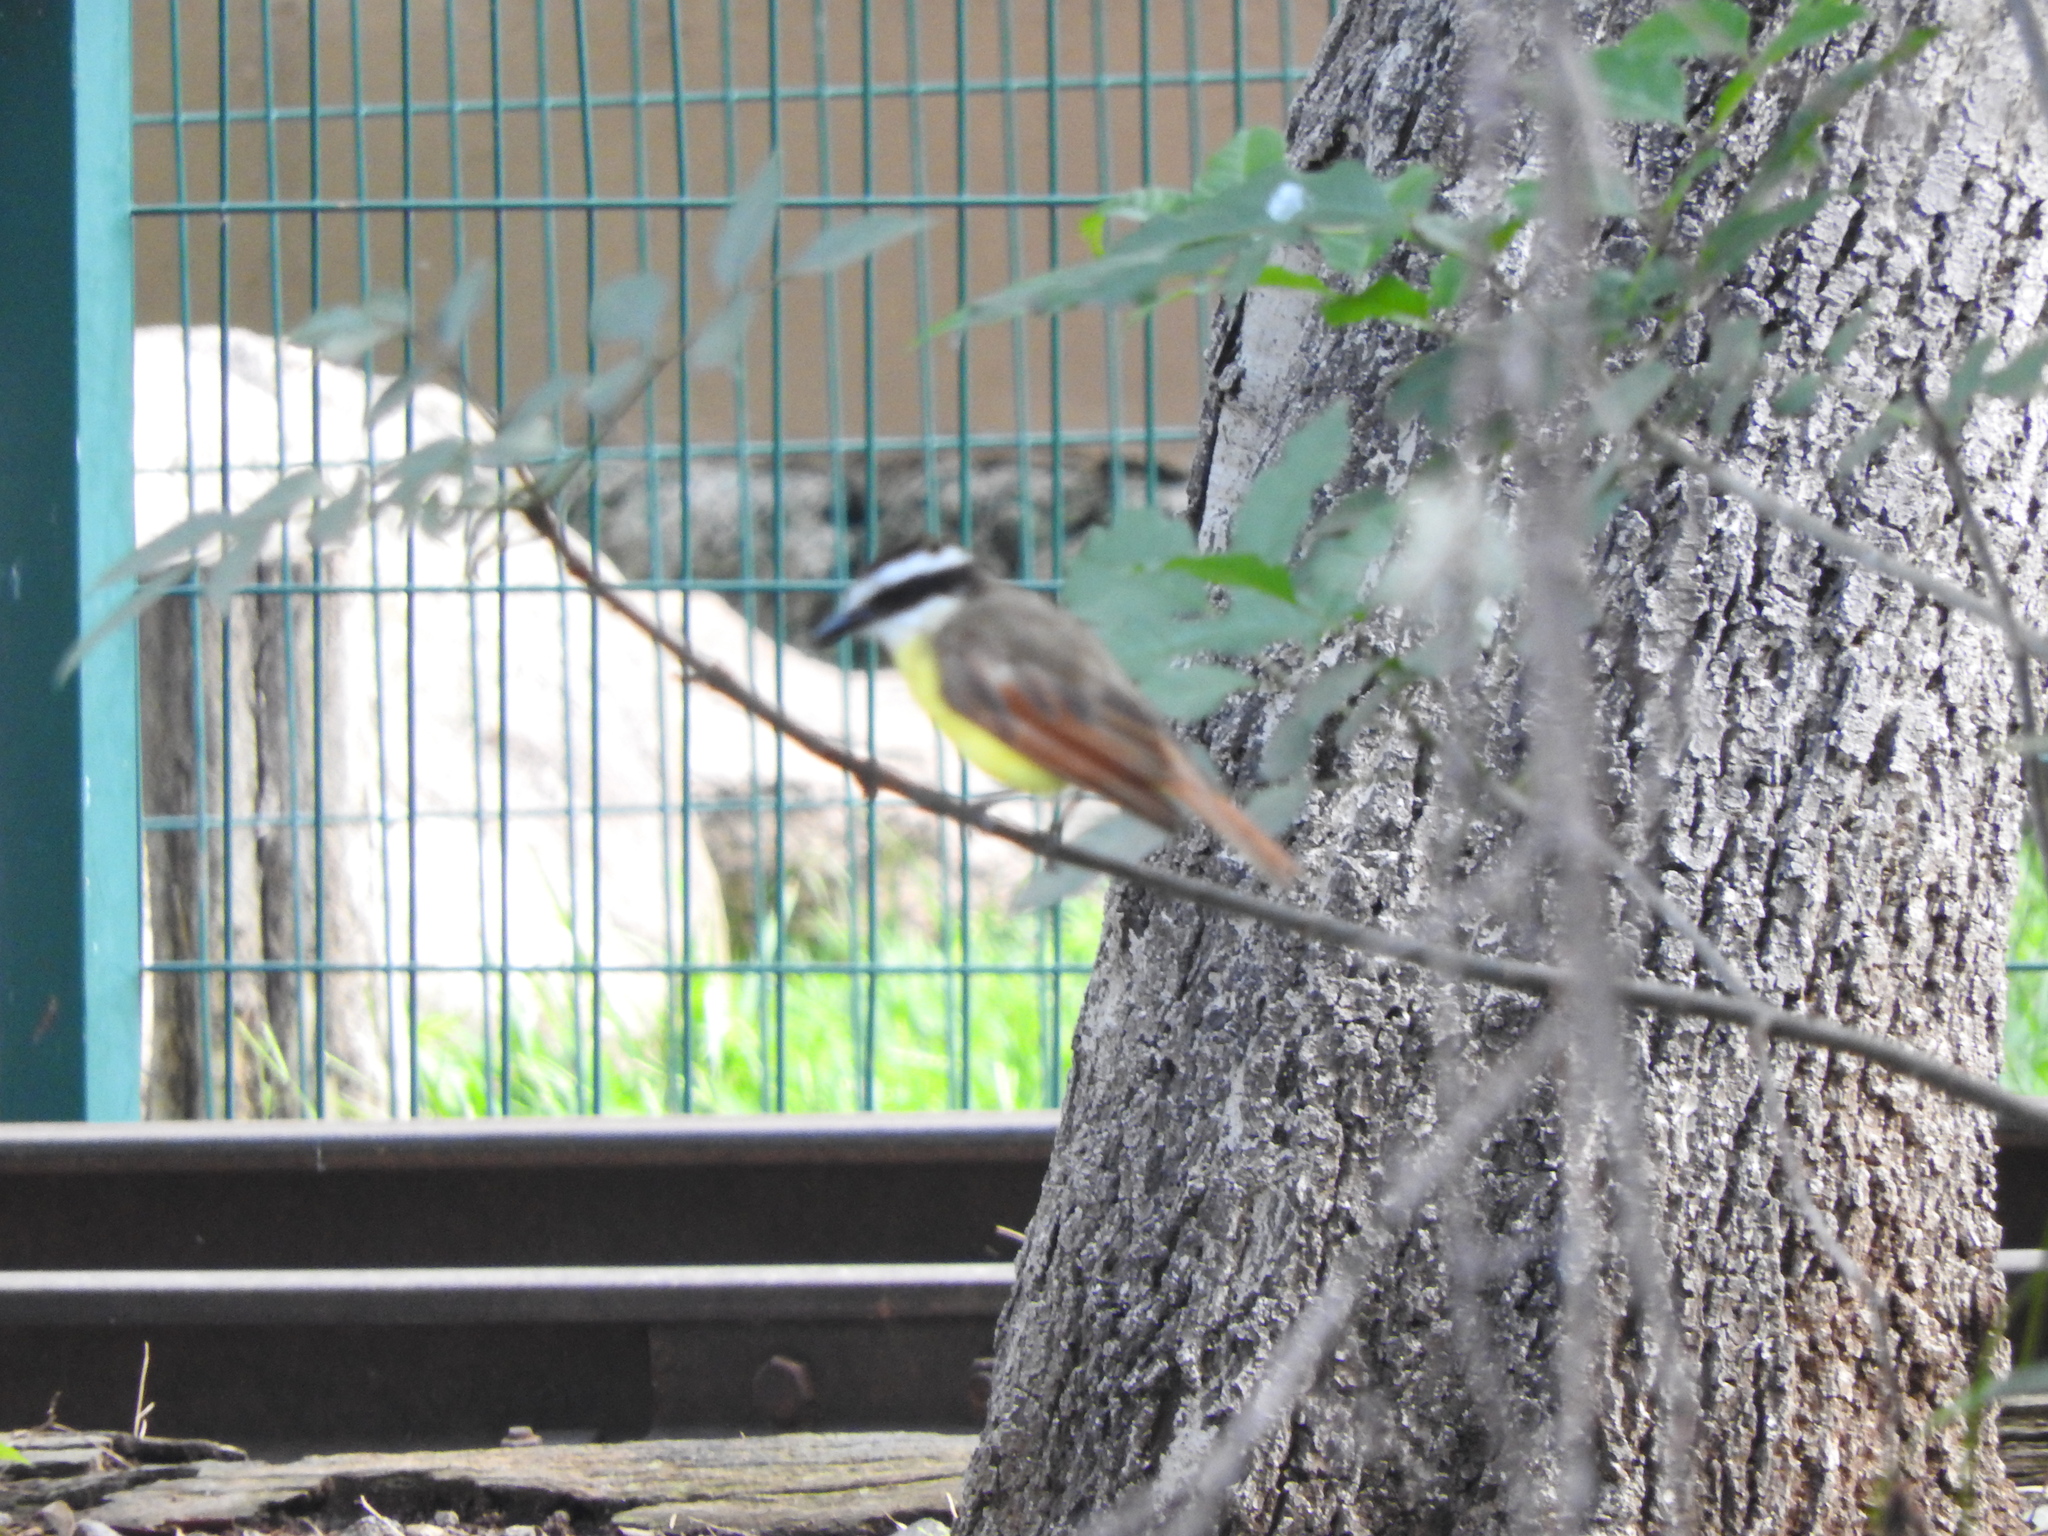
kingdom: Animalia
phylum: Chordata
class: Aves
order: Passeriformes
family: Tyrannidae
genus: Pitangus
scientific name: Pitangus sulphuratus
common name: Great kiskadee
